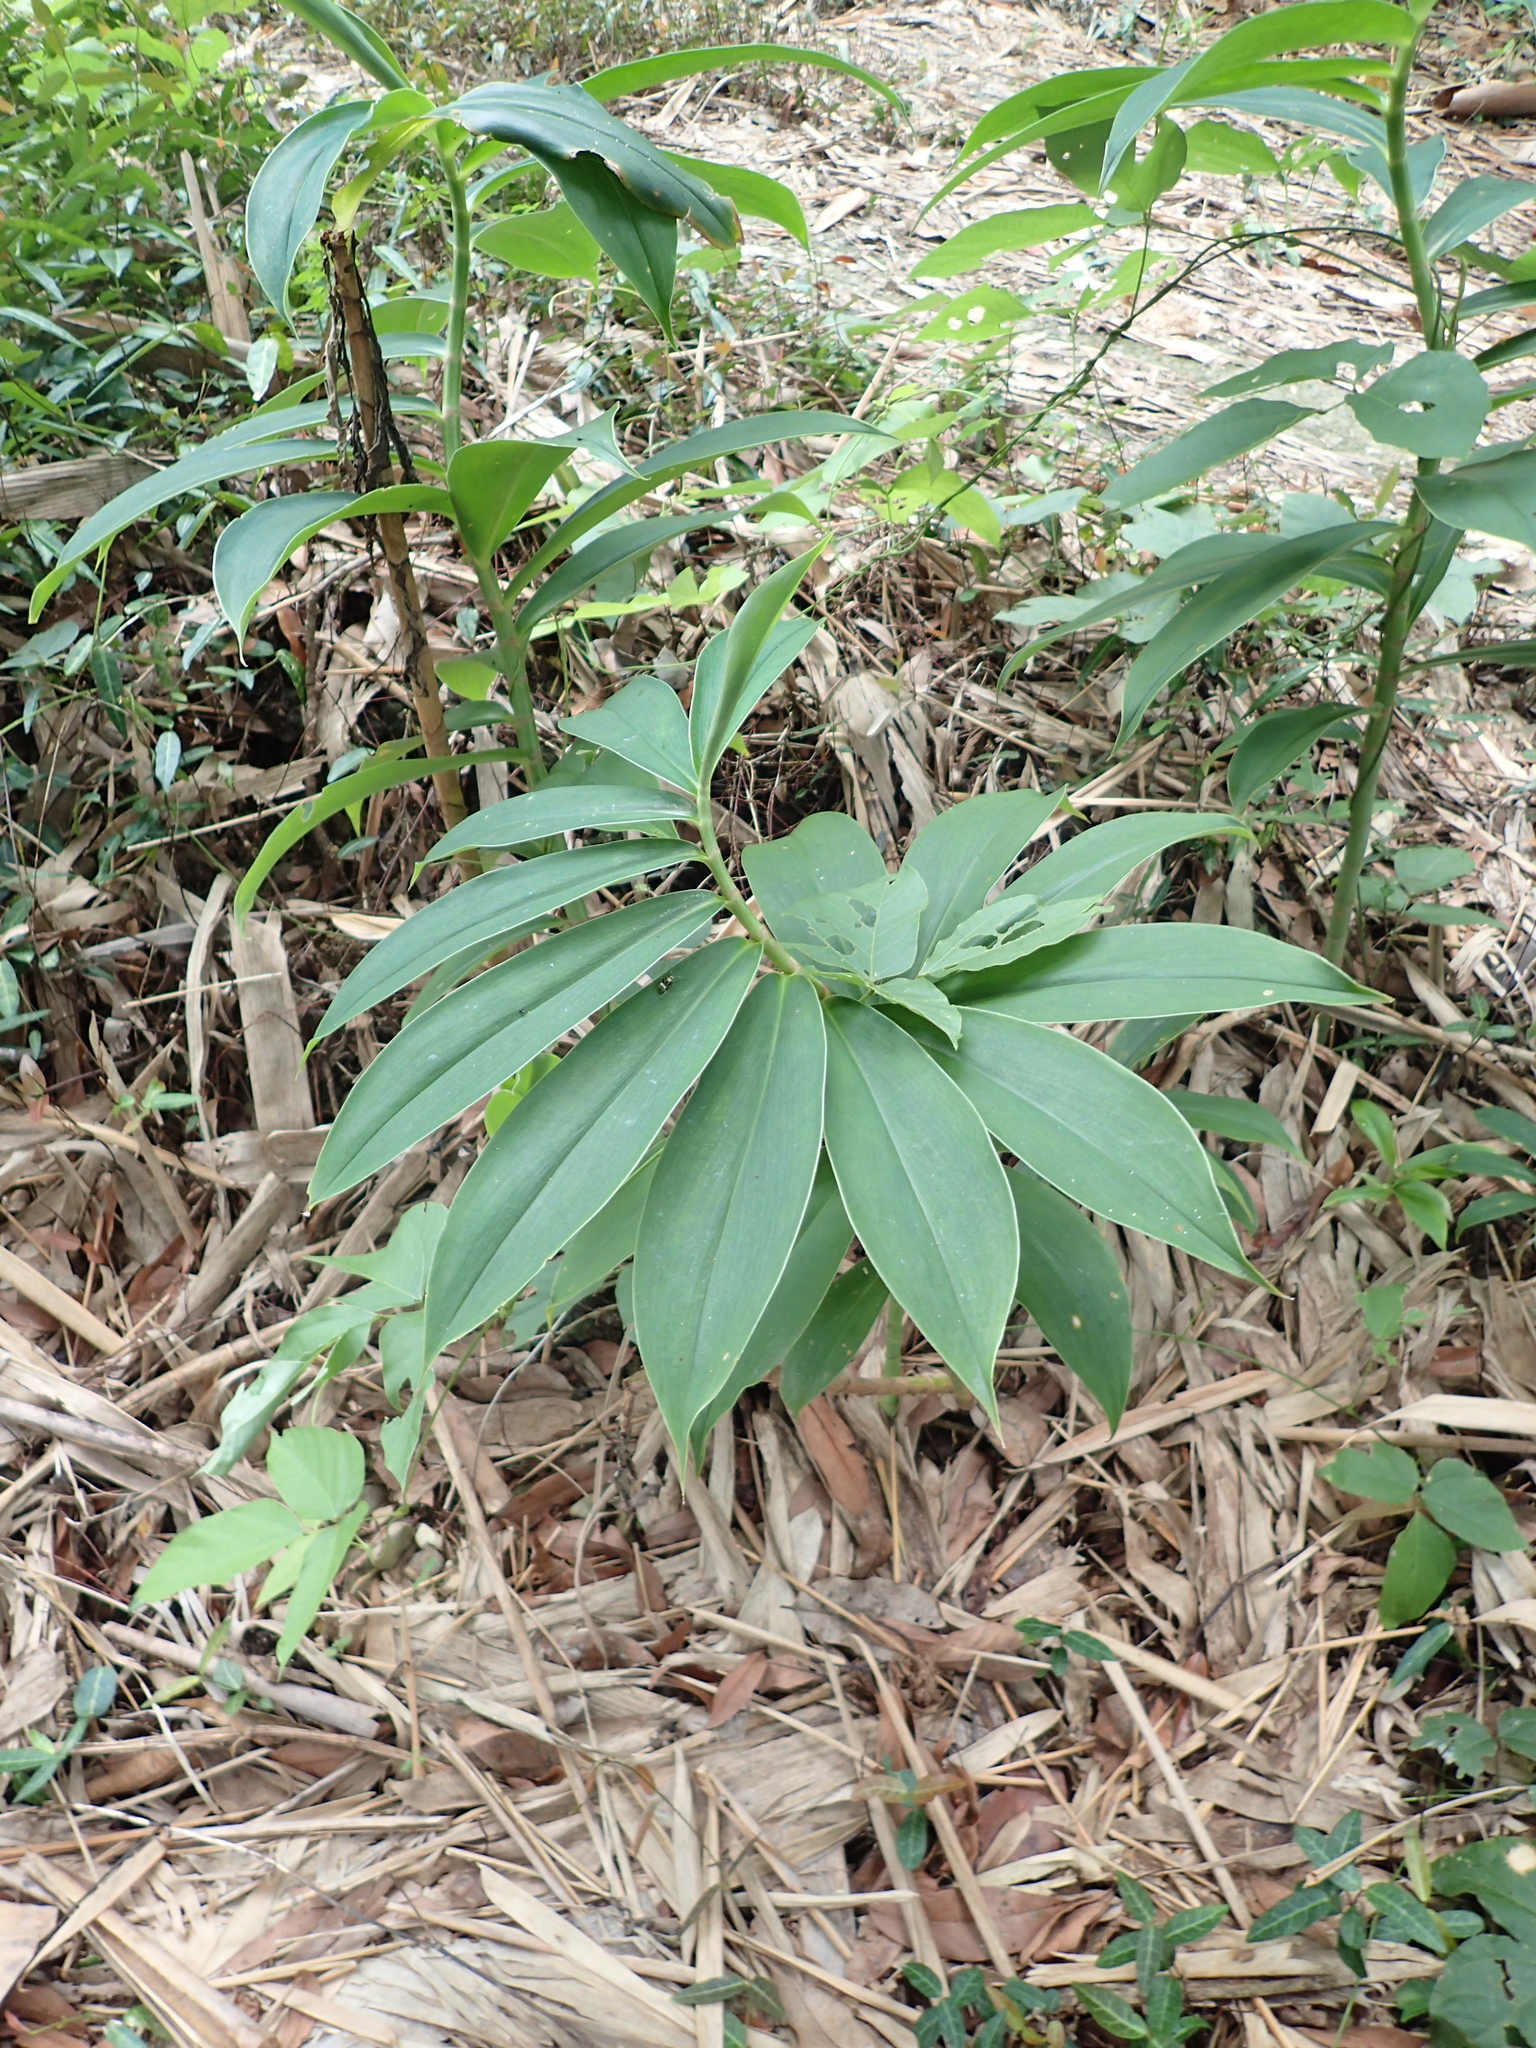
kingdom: Plantae
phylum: Tracheophyta
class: Liliopsida
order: Zingiberales
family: Costaceae
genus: Hellenia
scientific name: Hellenia speciosa
